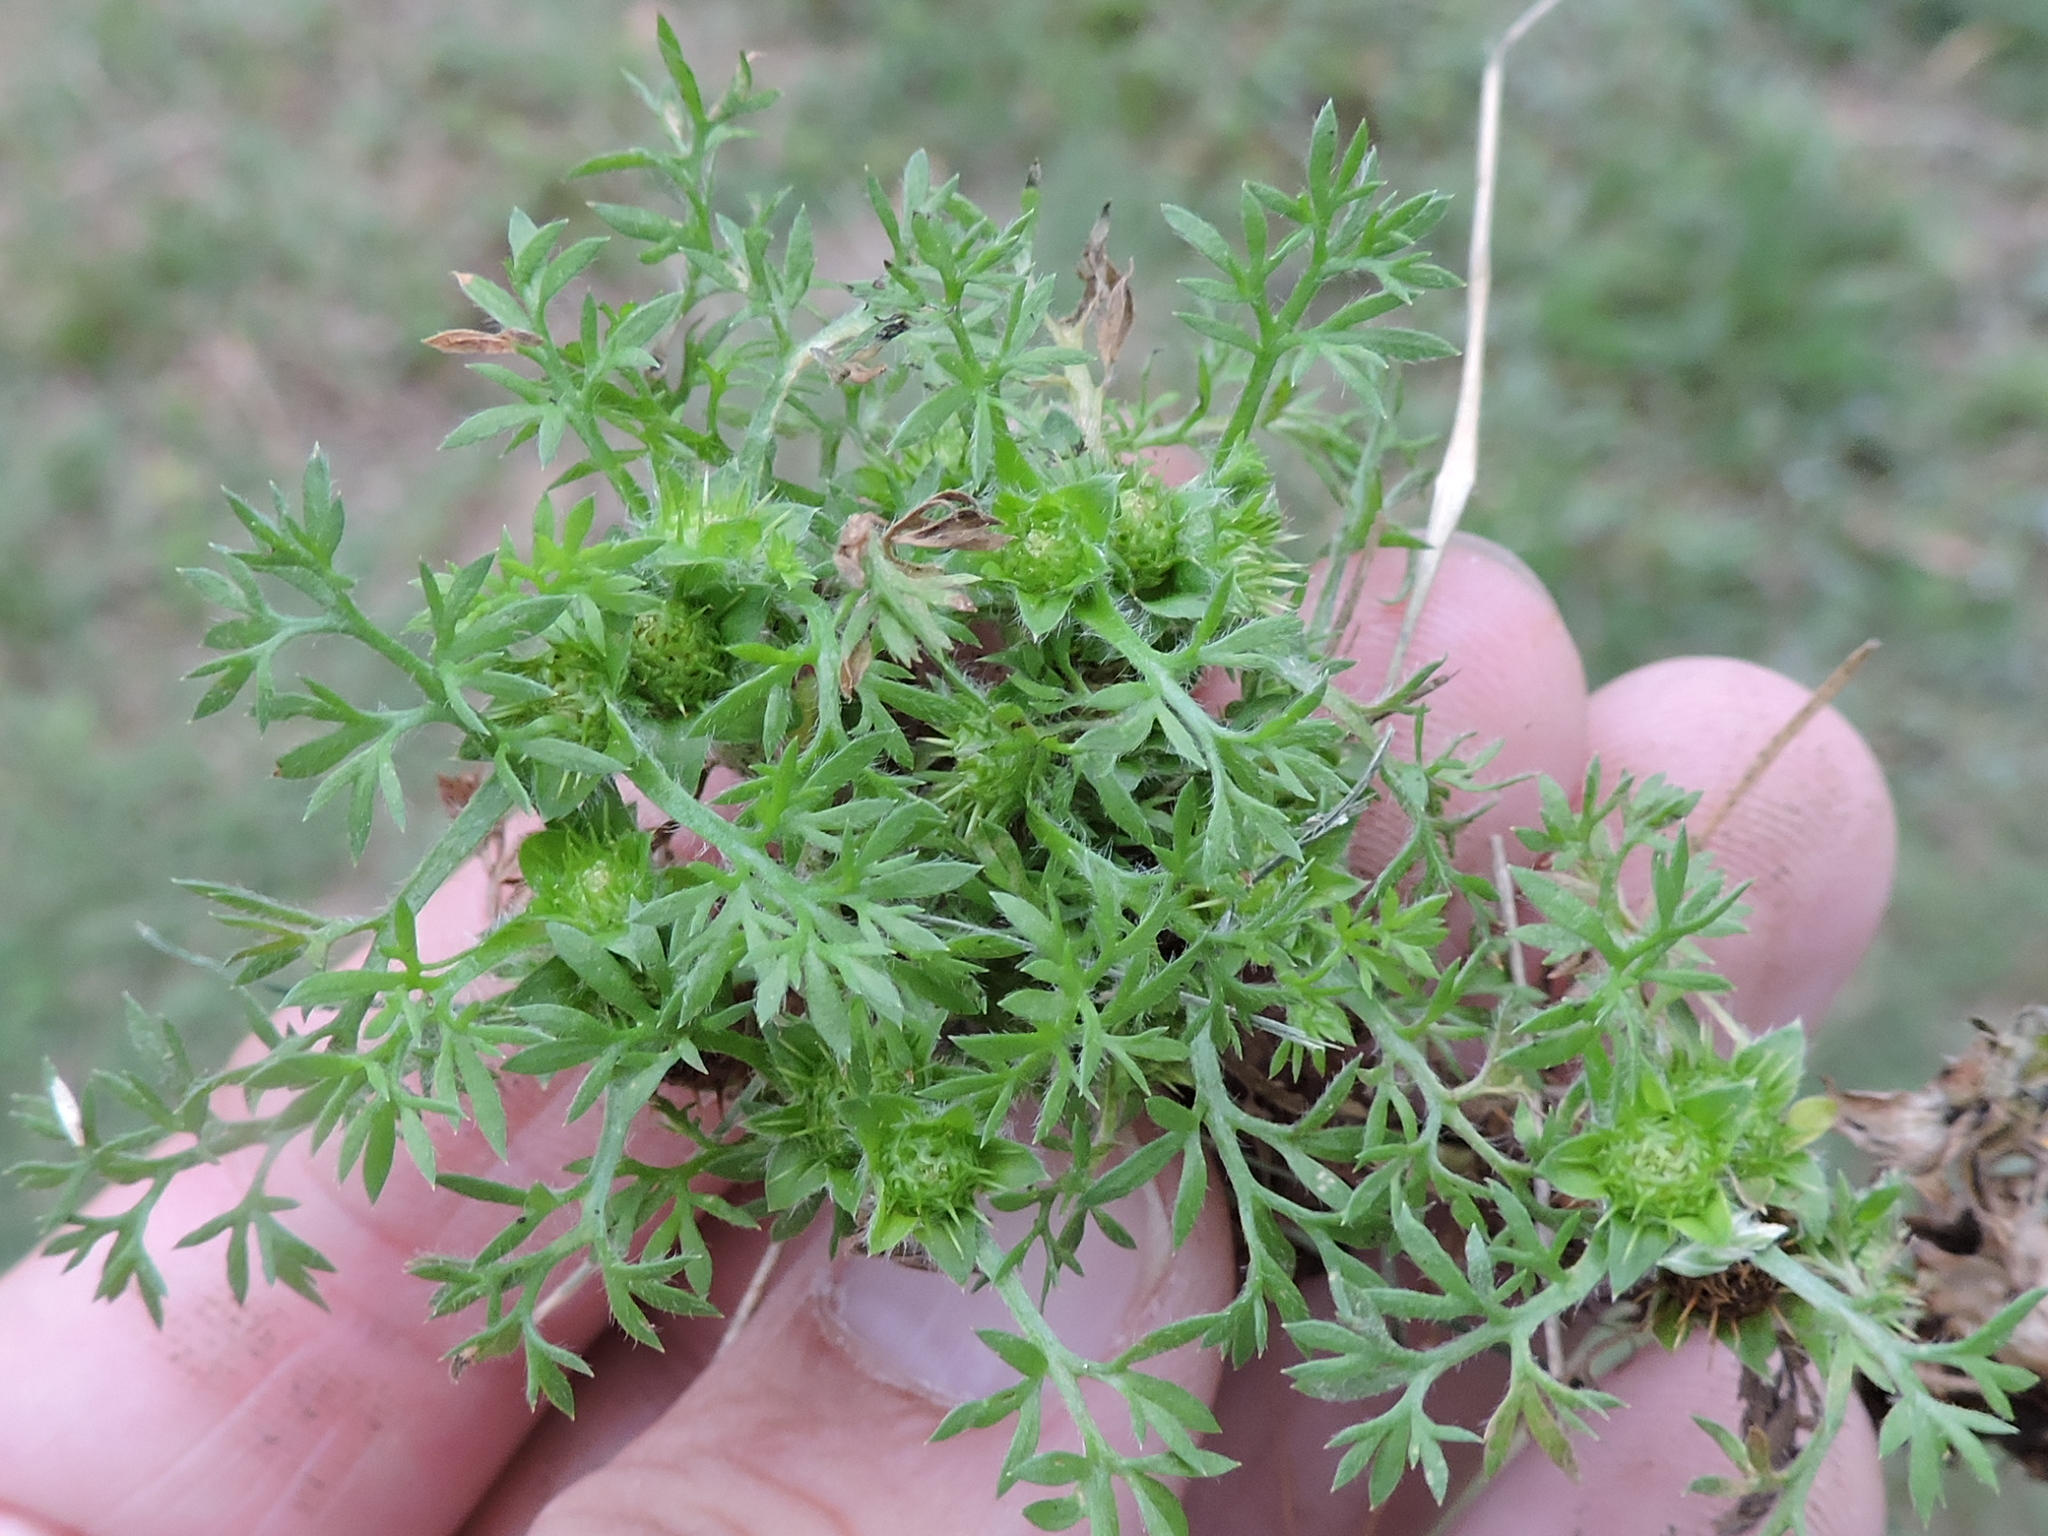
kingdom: Plantae
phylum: Tracheophyta
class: Magnoliopsida
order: Asterales
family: Asteraceae
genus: Soliva
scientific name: Soliva sessilis
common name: Field burrweed
